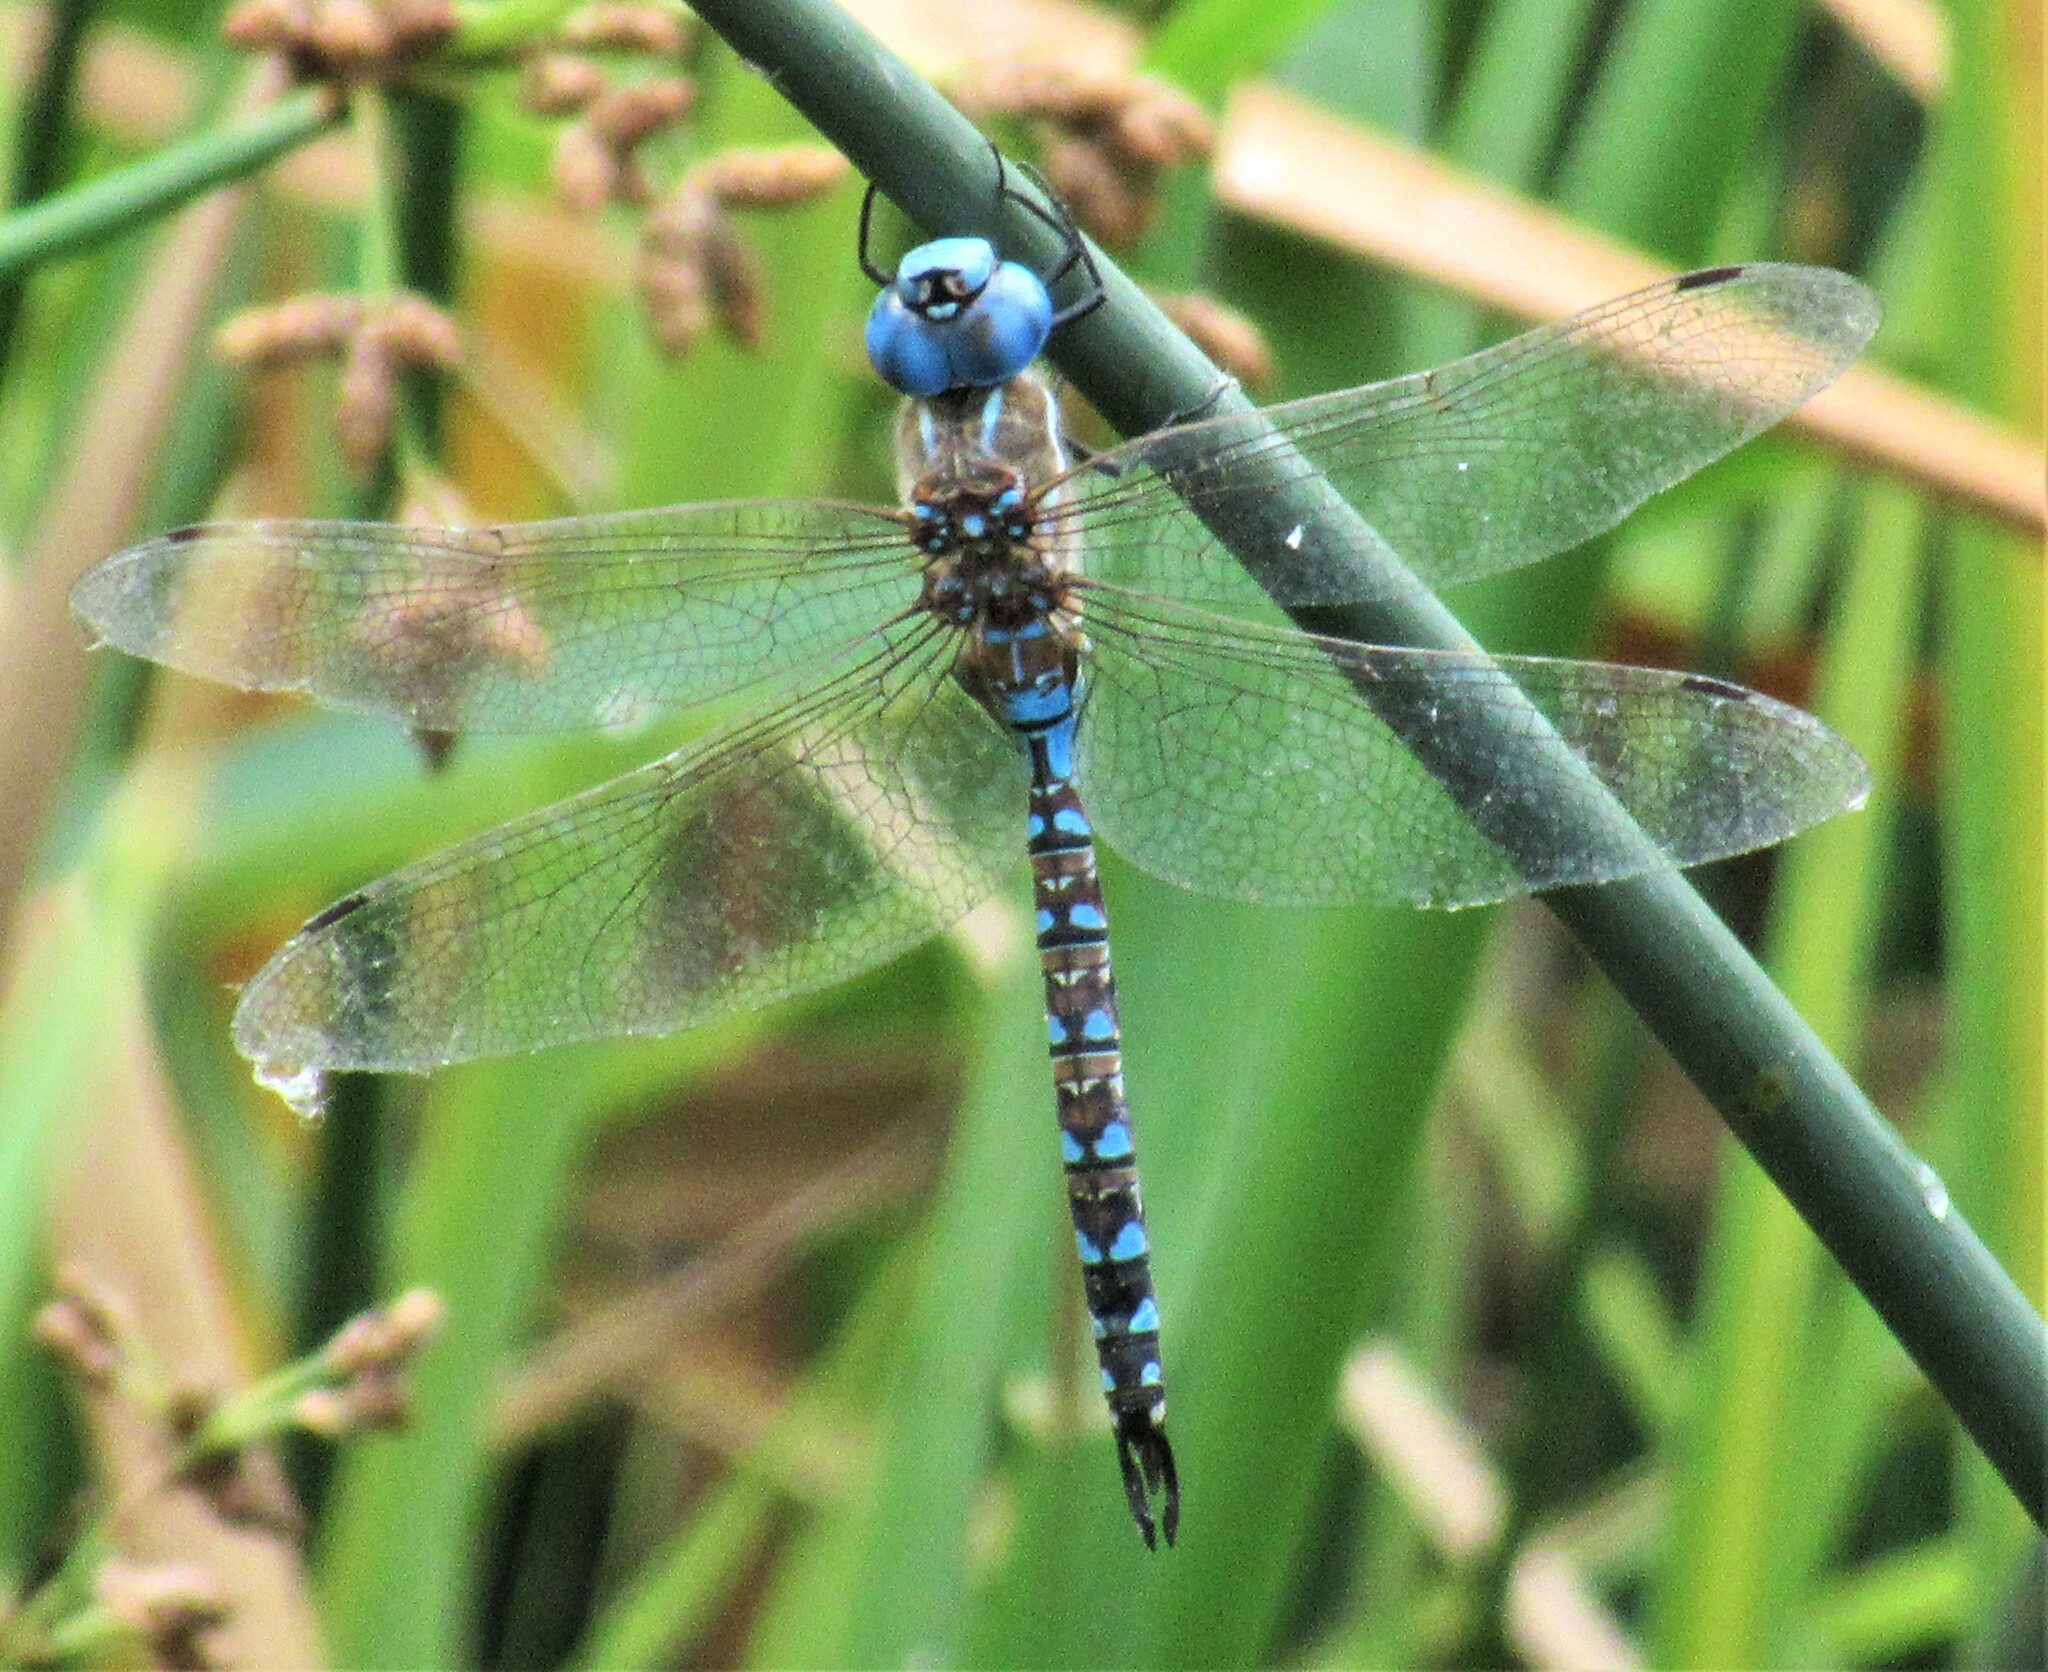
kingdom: Animalia
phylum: Arthropoda
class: Insecta
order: Odonata
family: Aeshnidae
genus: Rhionaeschna
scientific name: Rhionaeschna multicolor
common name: Blue-eyed darner
